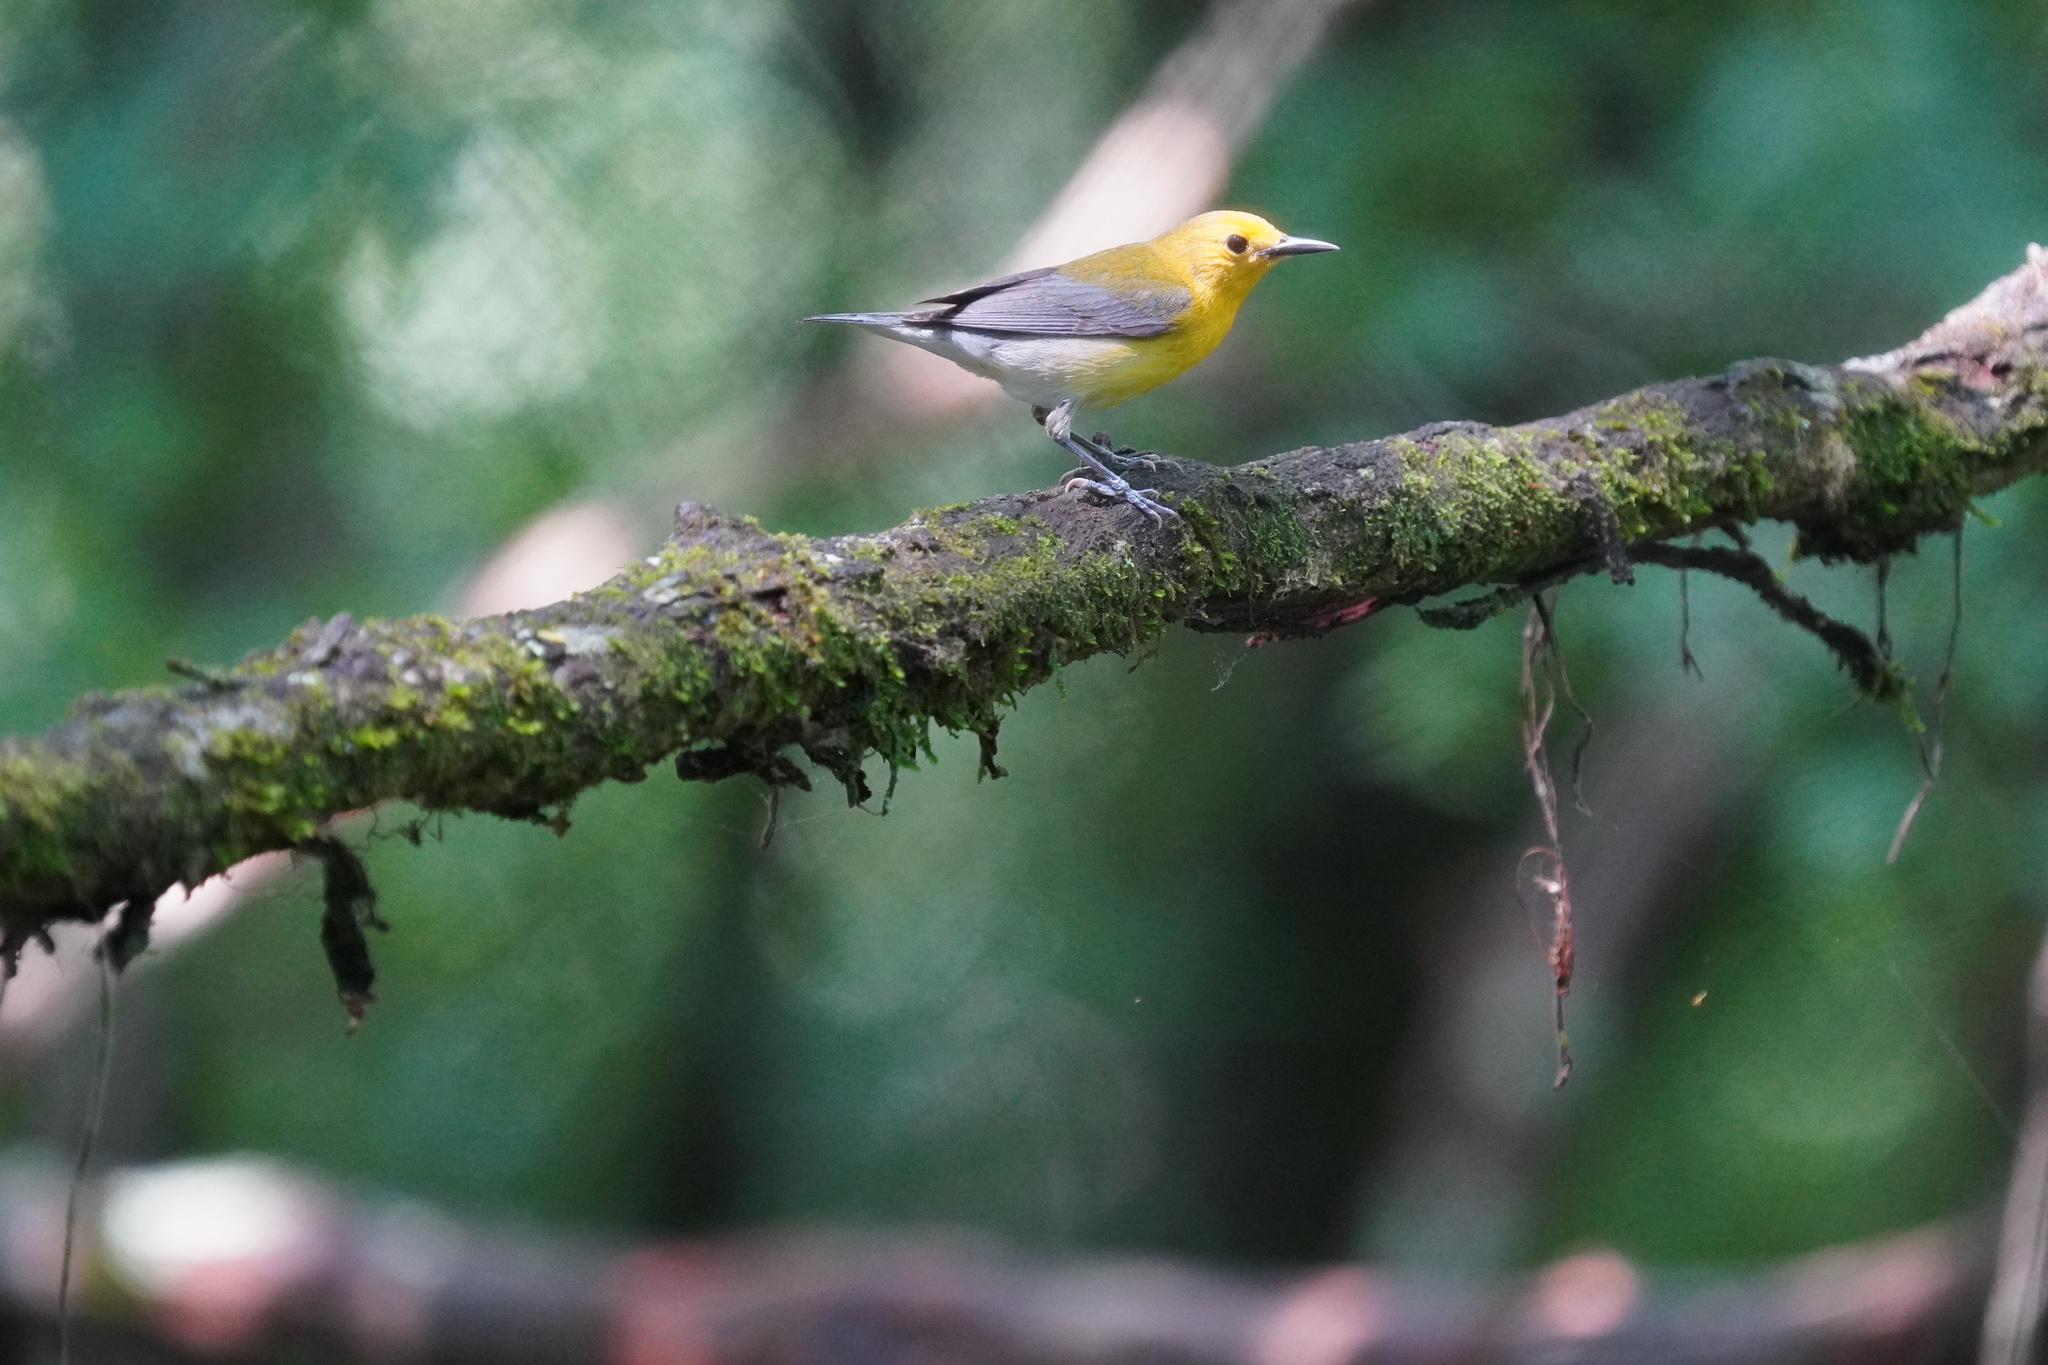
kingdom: Animalia
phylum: Chordata
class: Aves
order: Passeriformes
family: Parulidae
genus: Protonotaria
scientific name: Protonotaria citrea
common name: Prothonotary warbler
